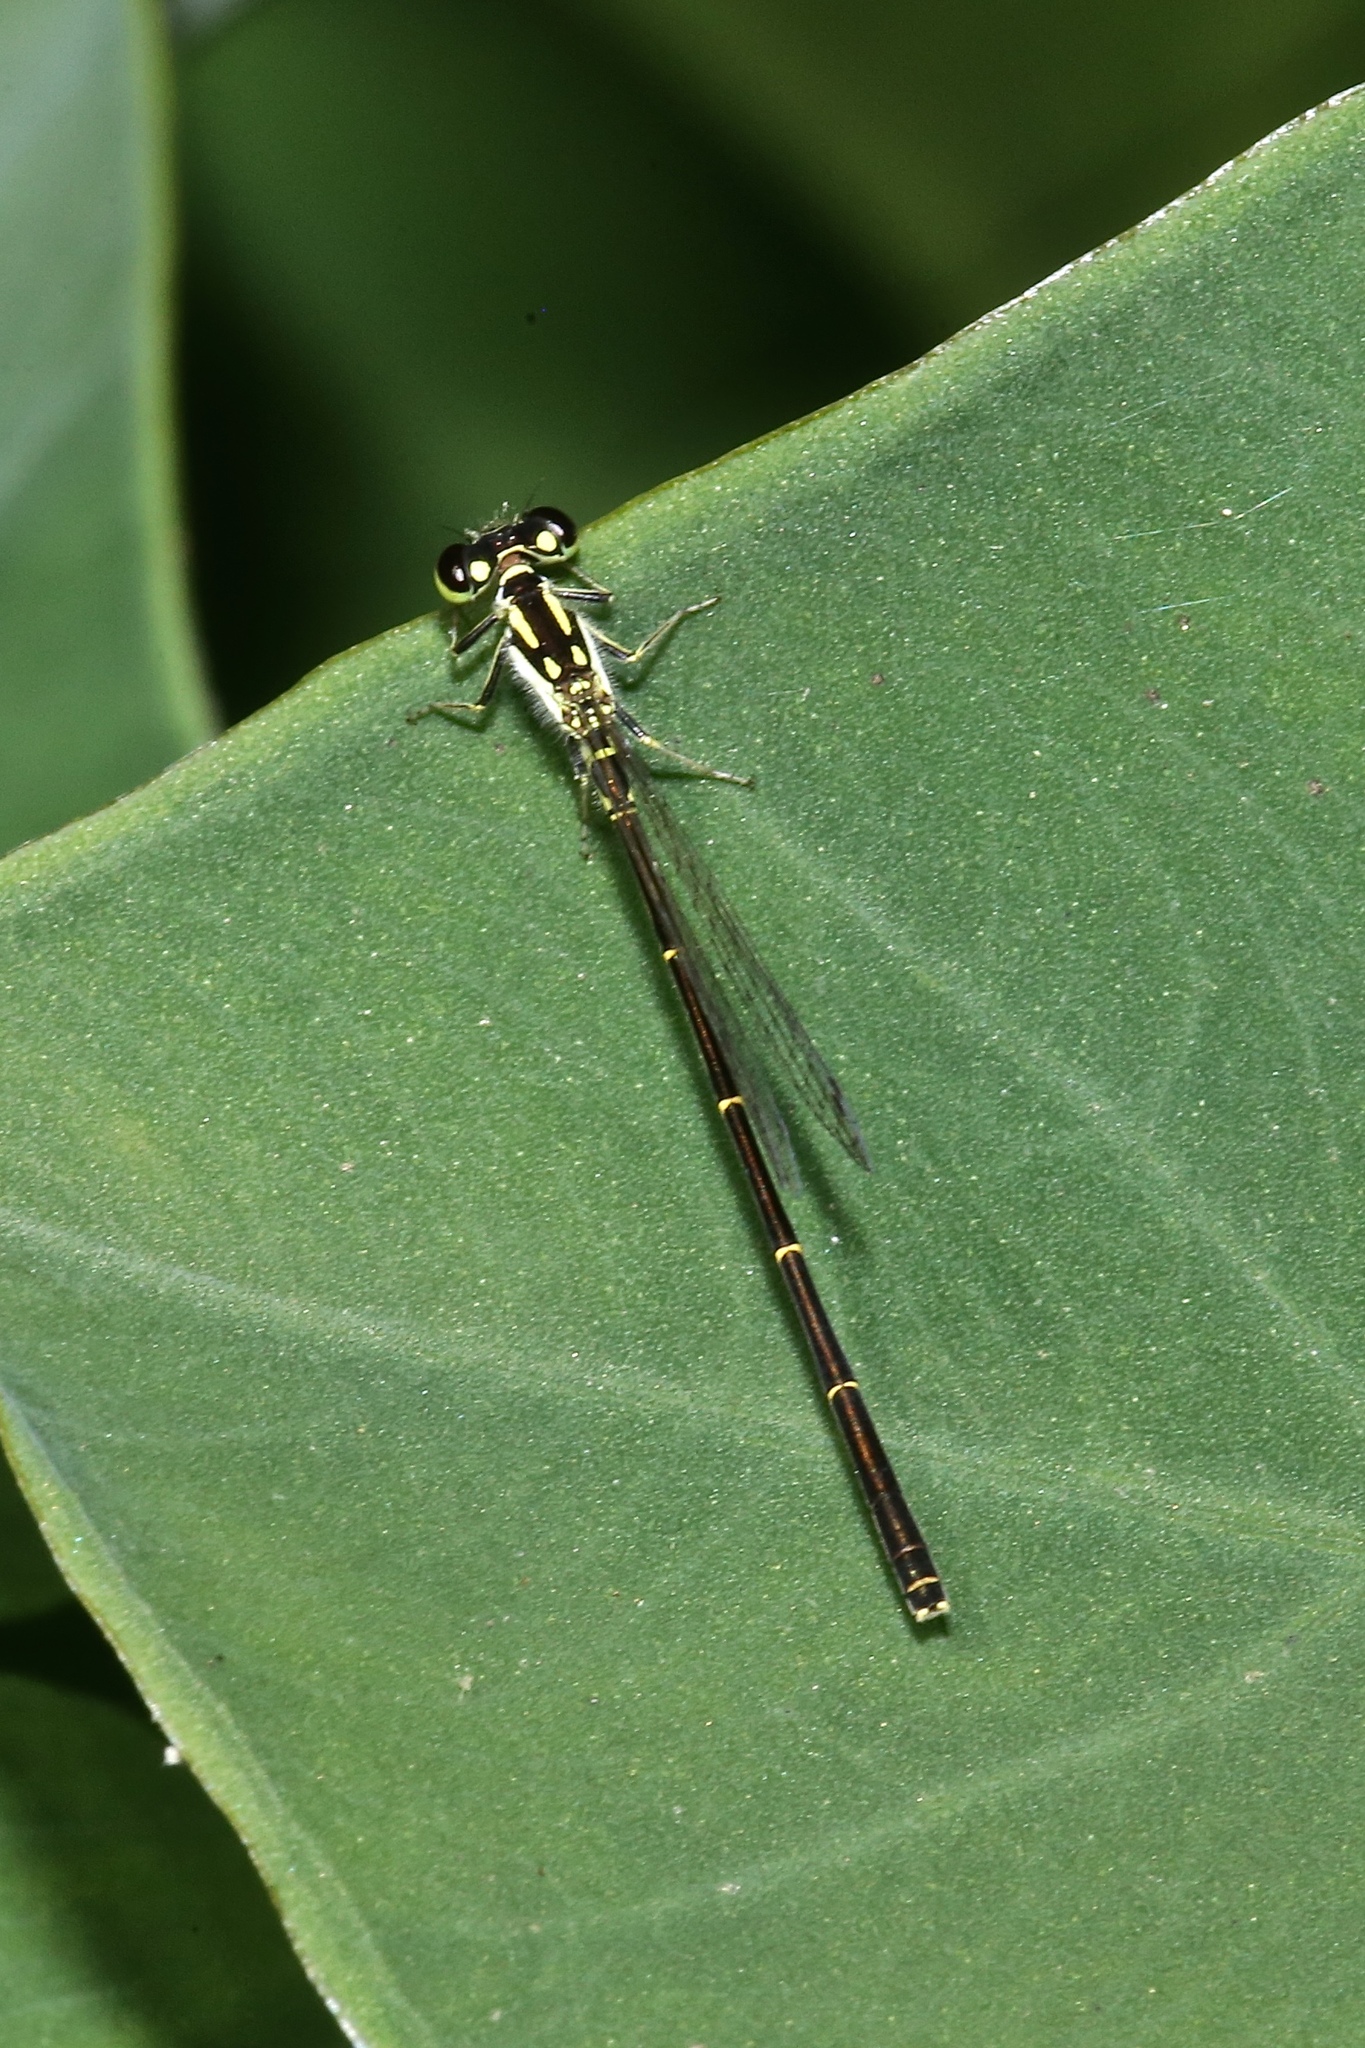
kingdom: Animalia
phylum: Arthropoda
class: Insecta
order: Odonata
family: Coenagrionidae
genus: Ischnura
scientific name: Ischnura posita
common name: Fragile forktail
